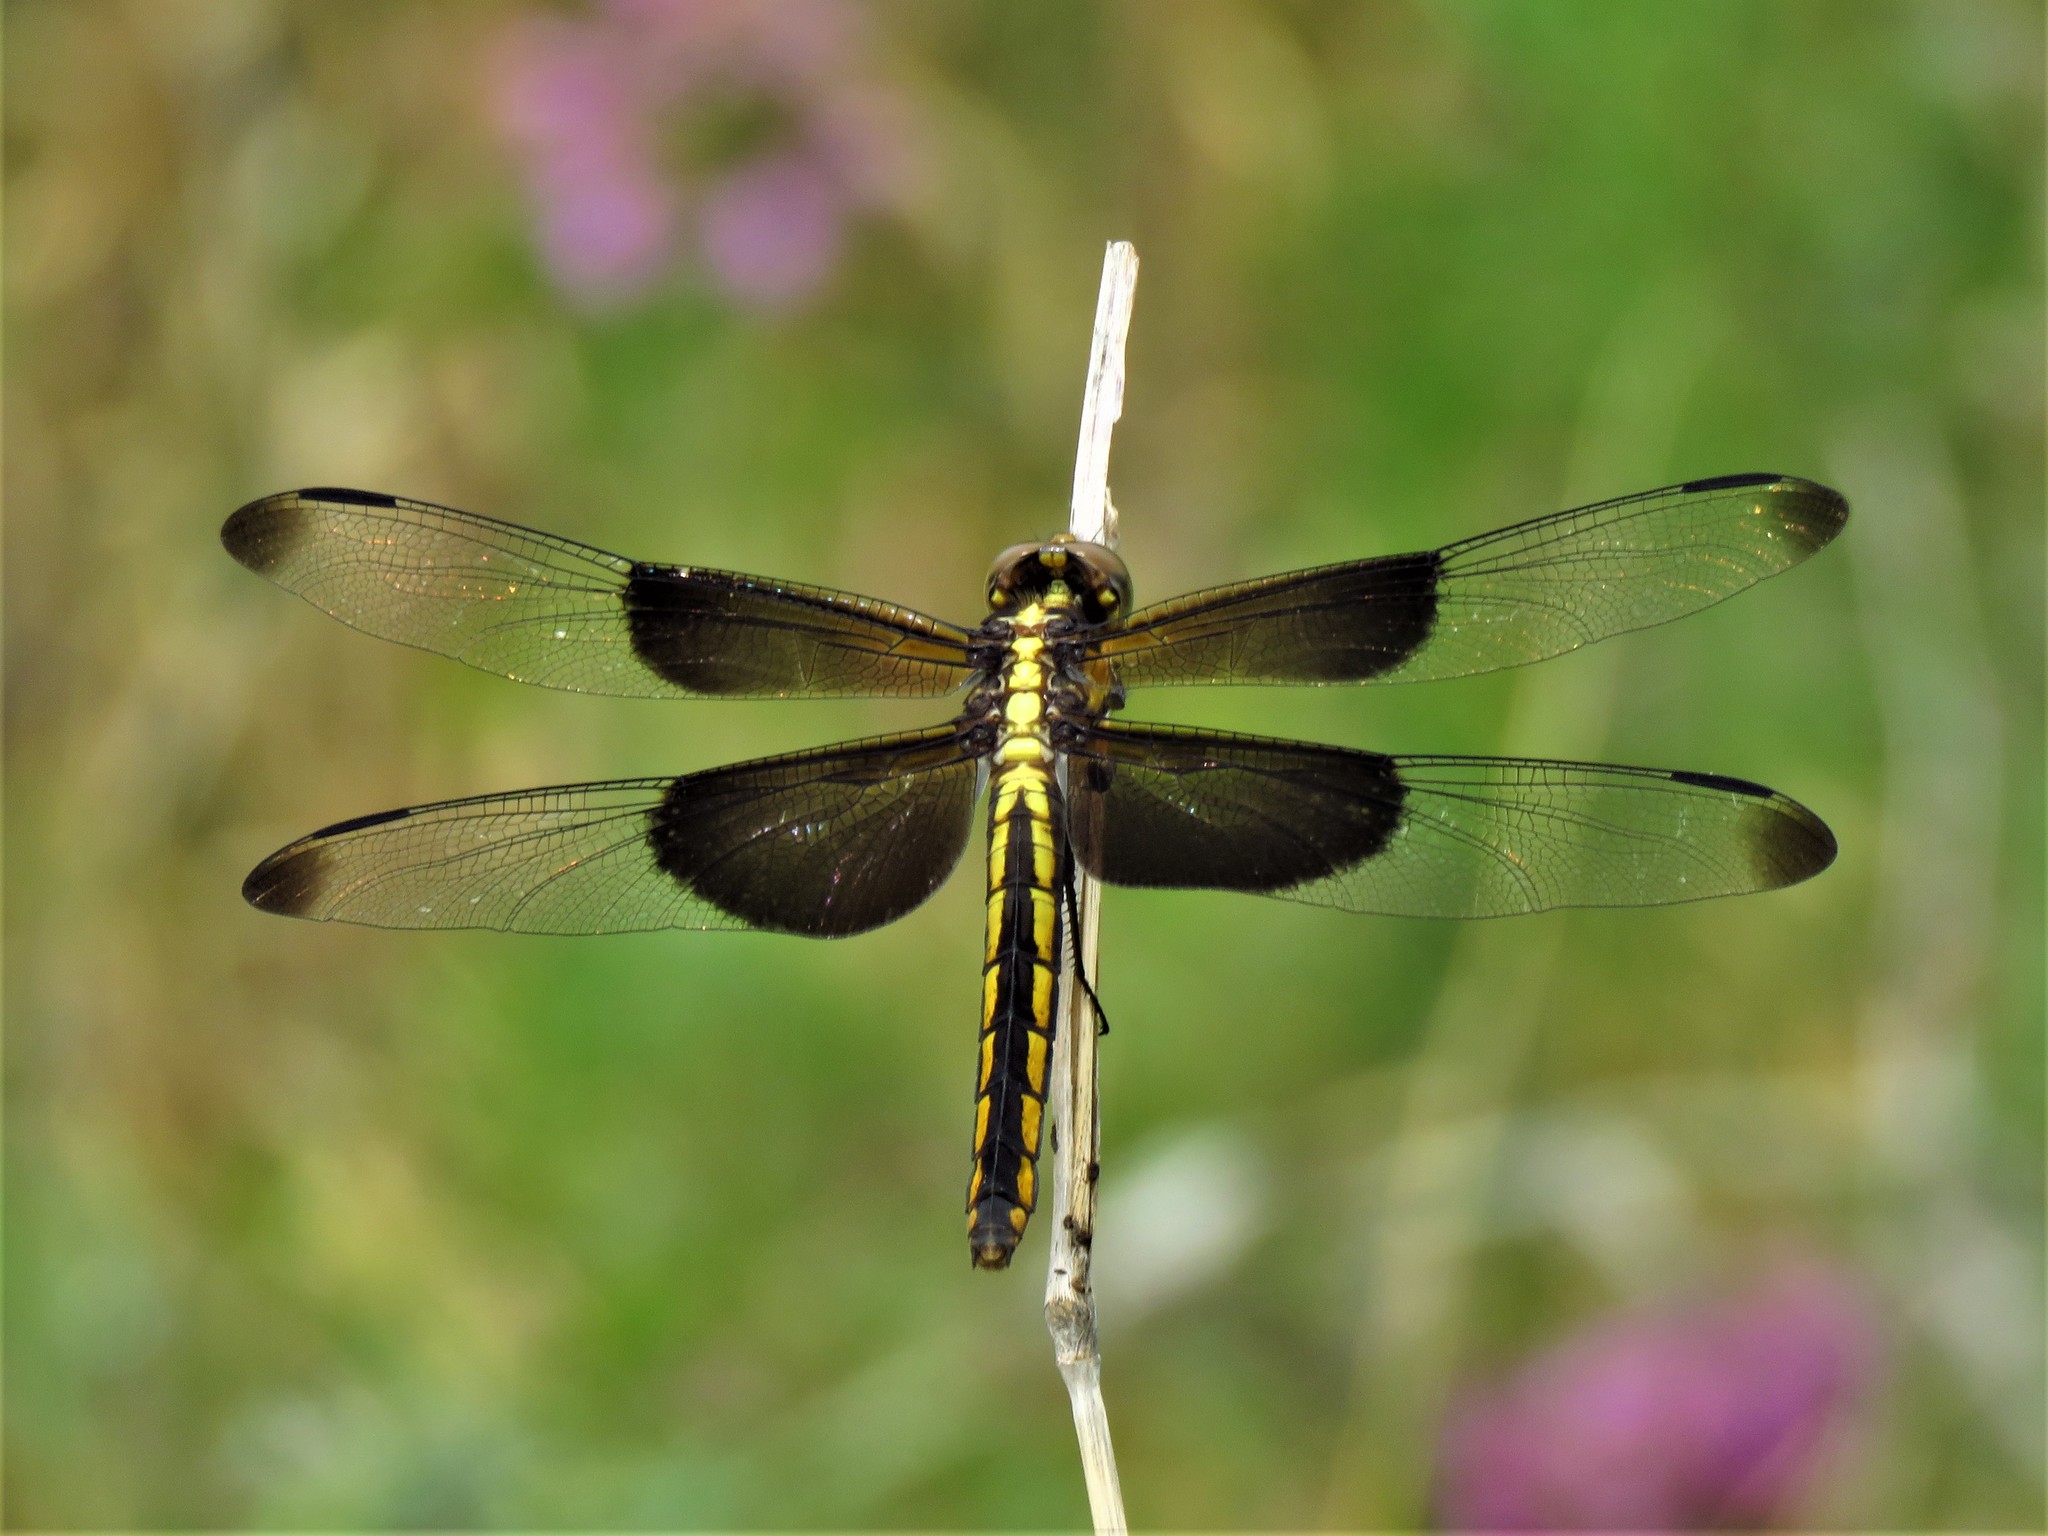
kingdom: Animalia
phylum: Arthropoda
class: Insecta
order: Odonata
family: Libellulidae
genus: Libellula
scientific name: Libellula luctuosa
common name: Widow skimmer
